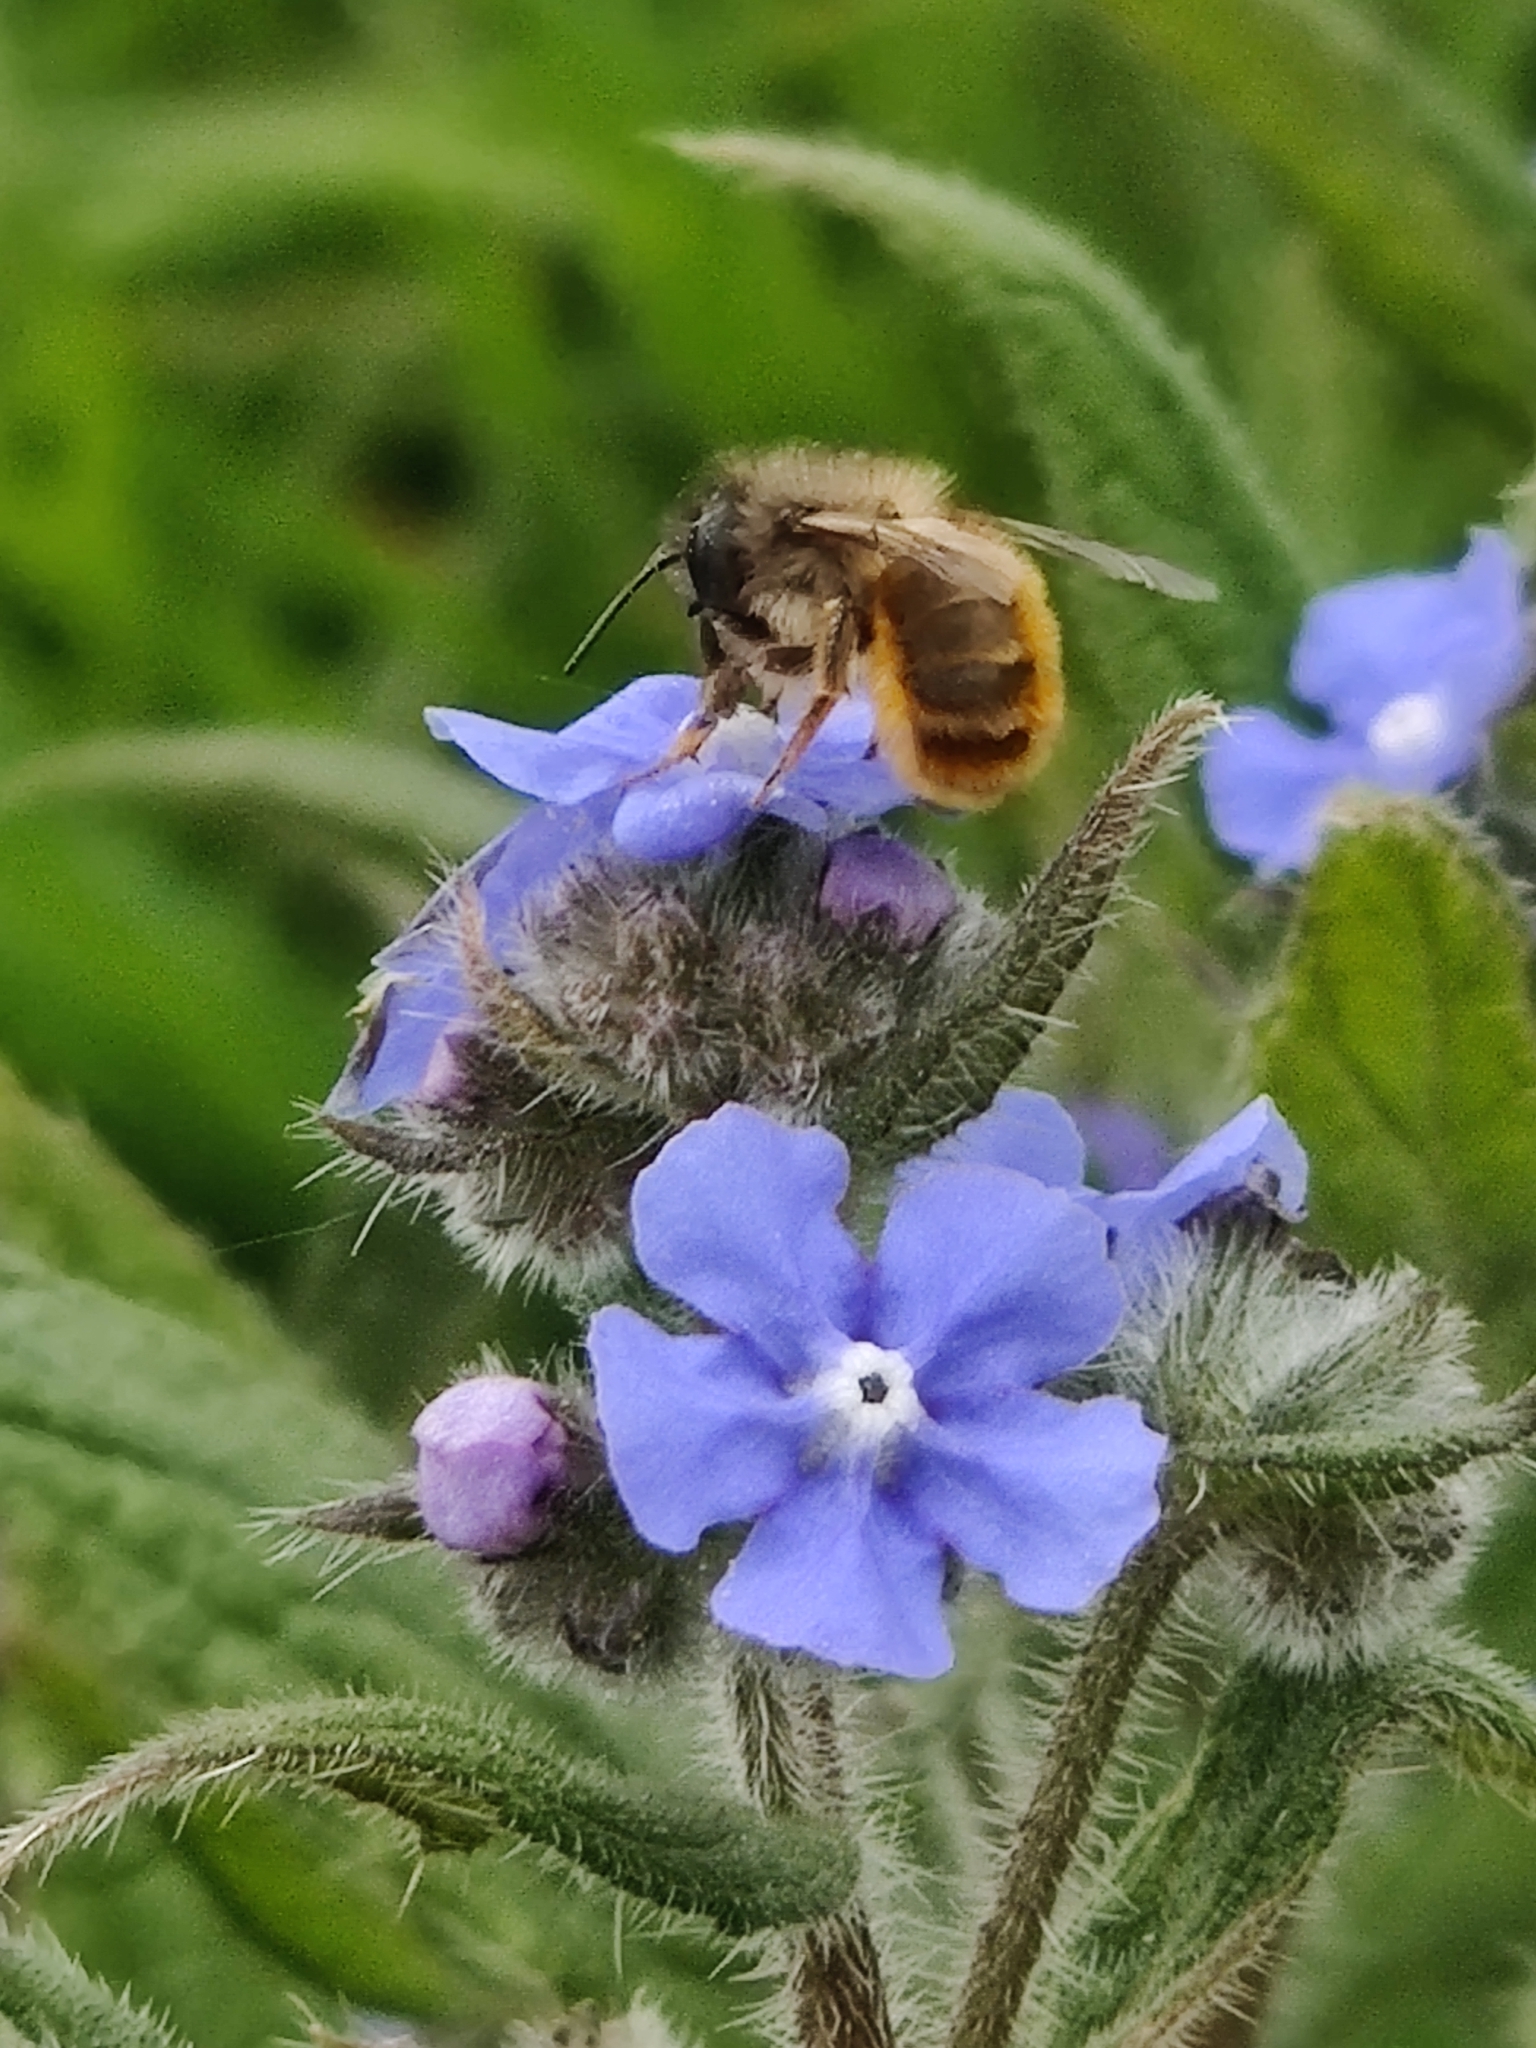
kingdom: Animalia
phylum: Arthropoda
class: Insecta
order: Hymenoptera
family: Megachilidae
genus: Osmia
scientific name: Osmia bicornis
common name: Red mason bee
